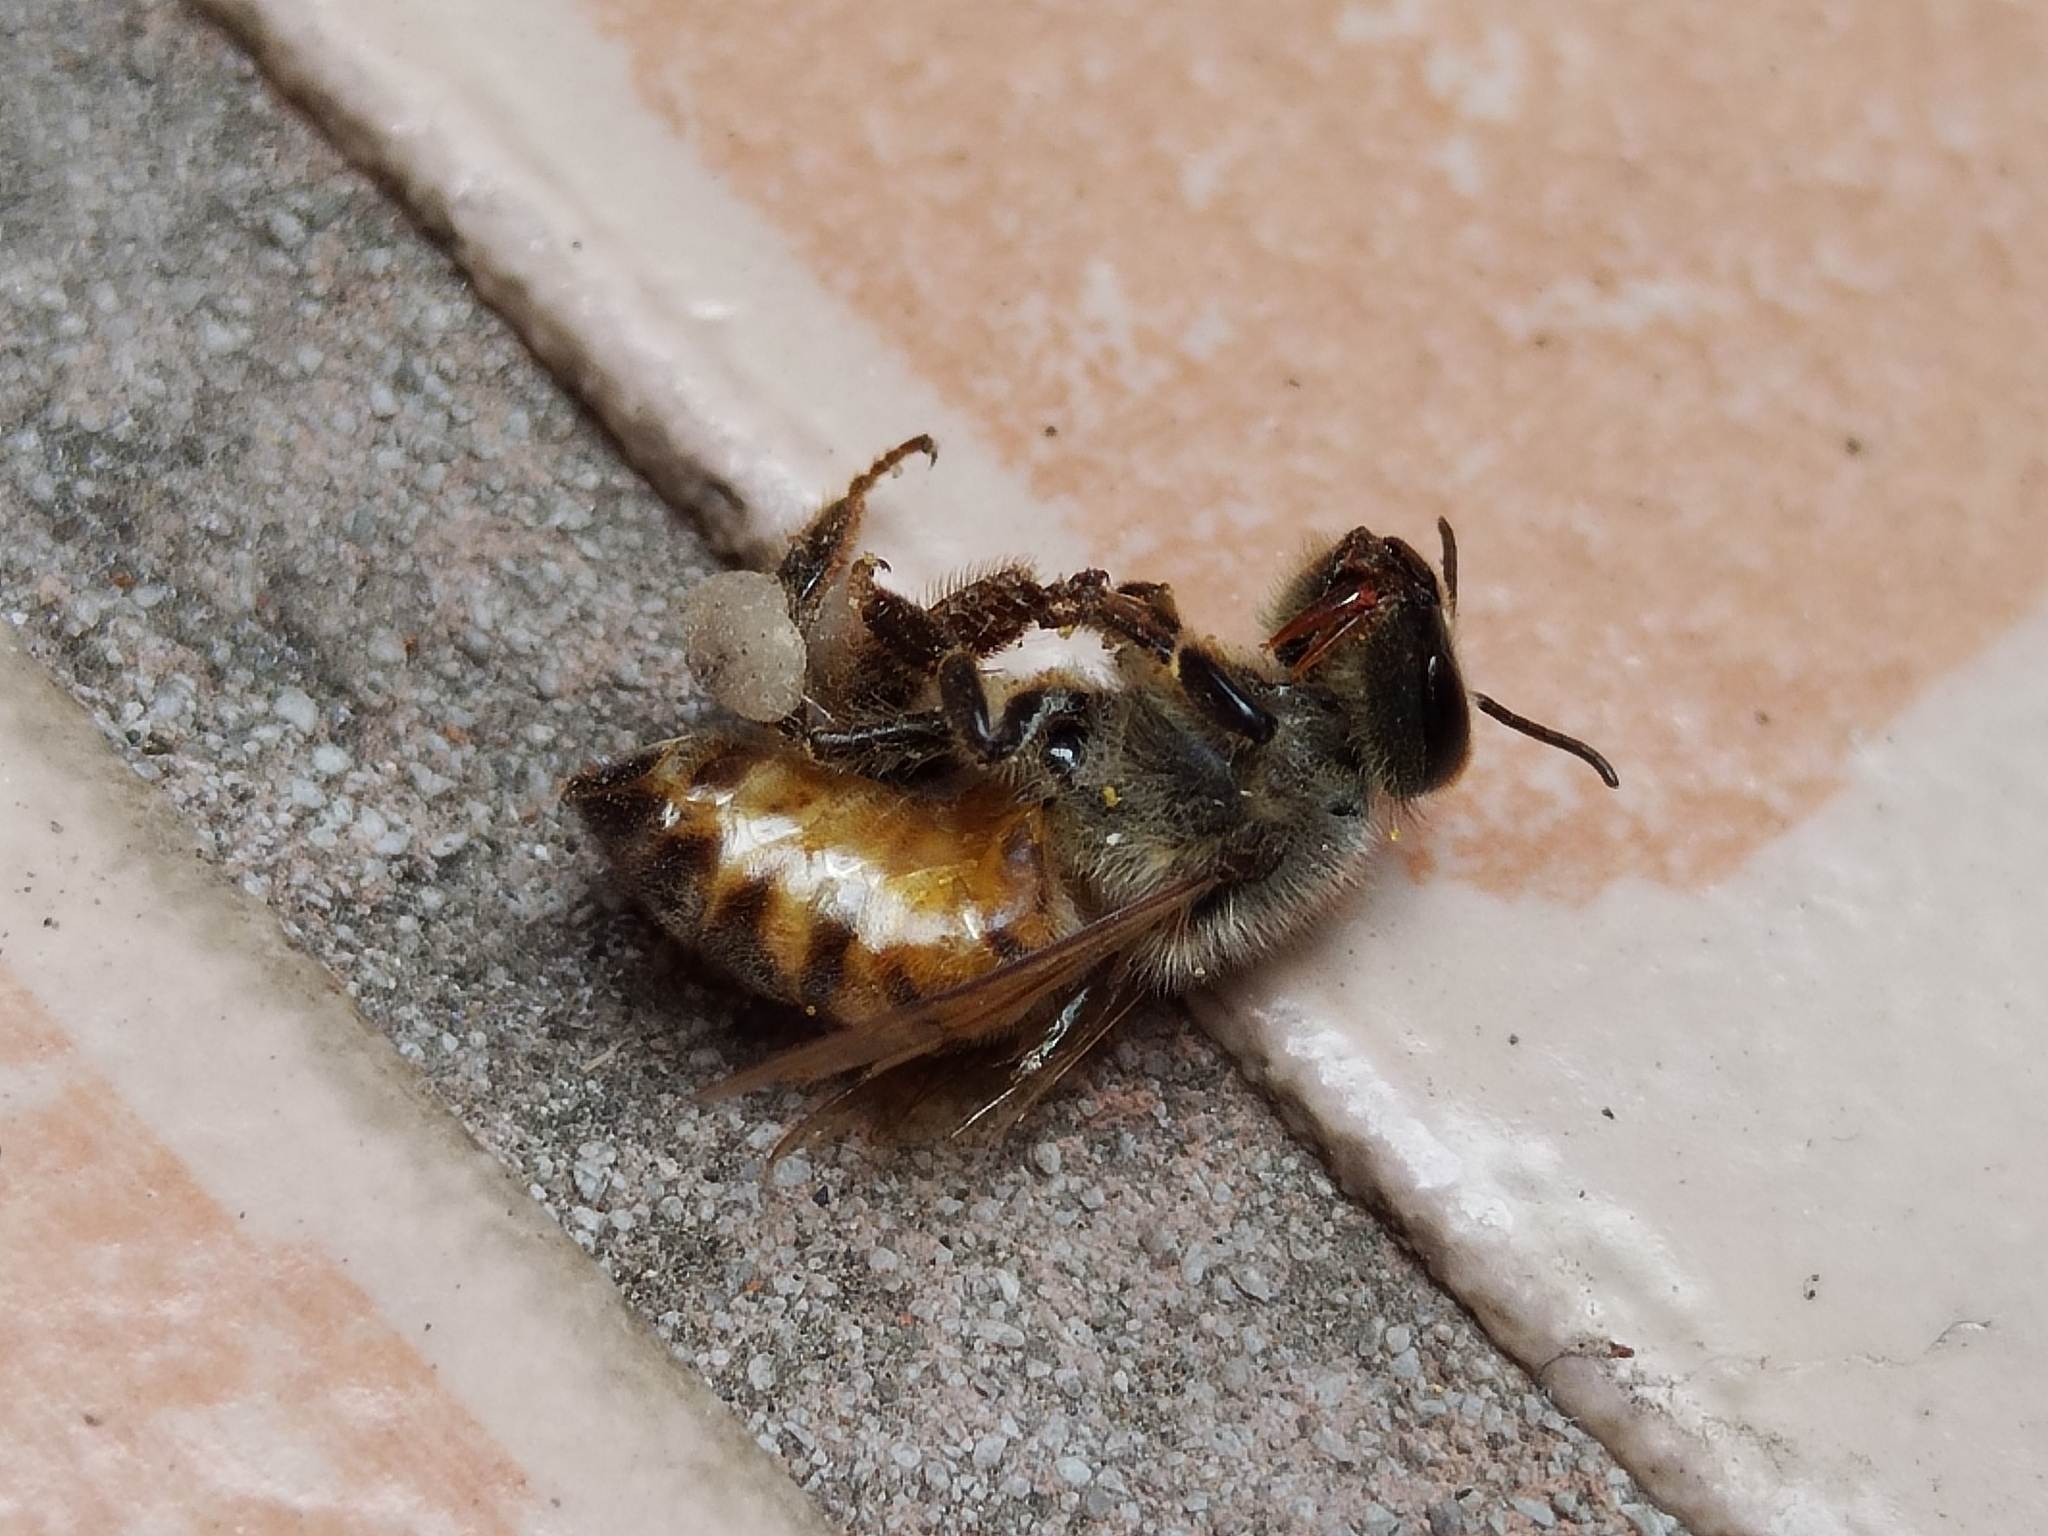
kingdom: Animalia
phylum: Arthropoda
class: Insecta
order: Hymenoptera
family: Apidae
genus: Apis
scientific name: Apis mellifera
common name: Honey bee
